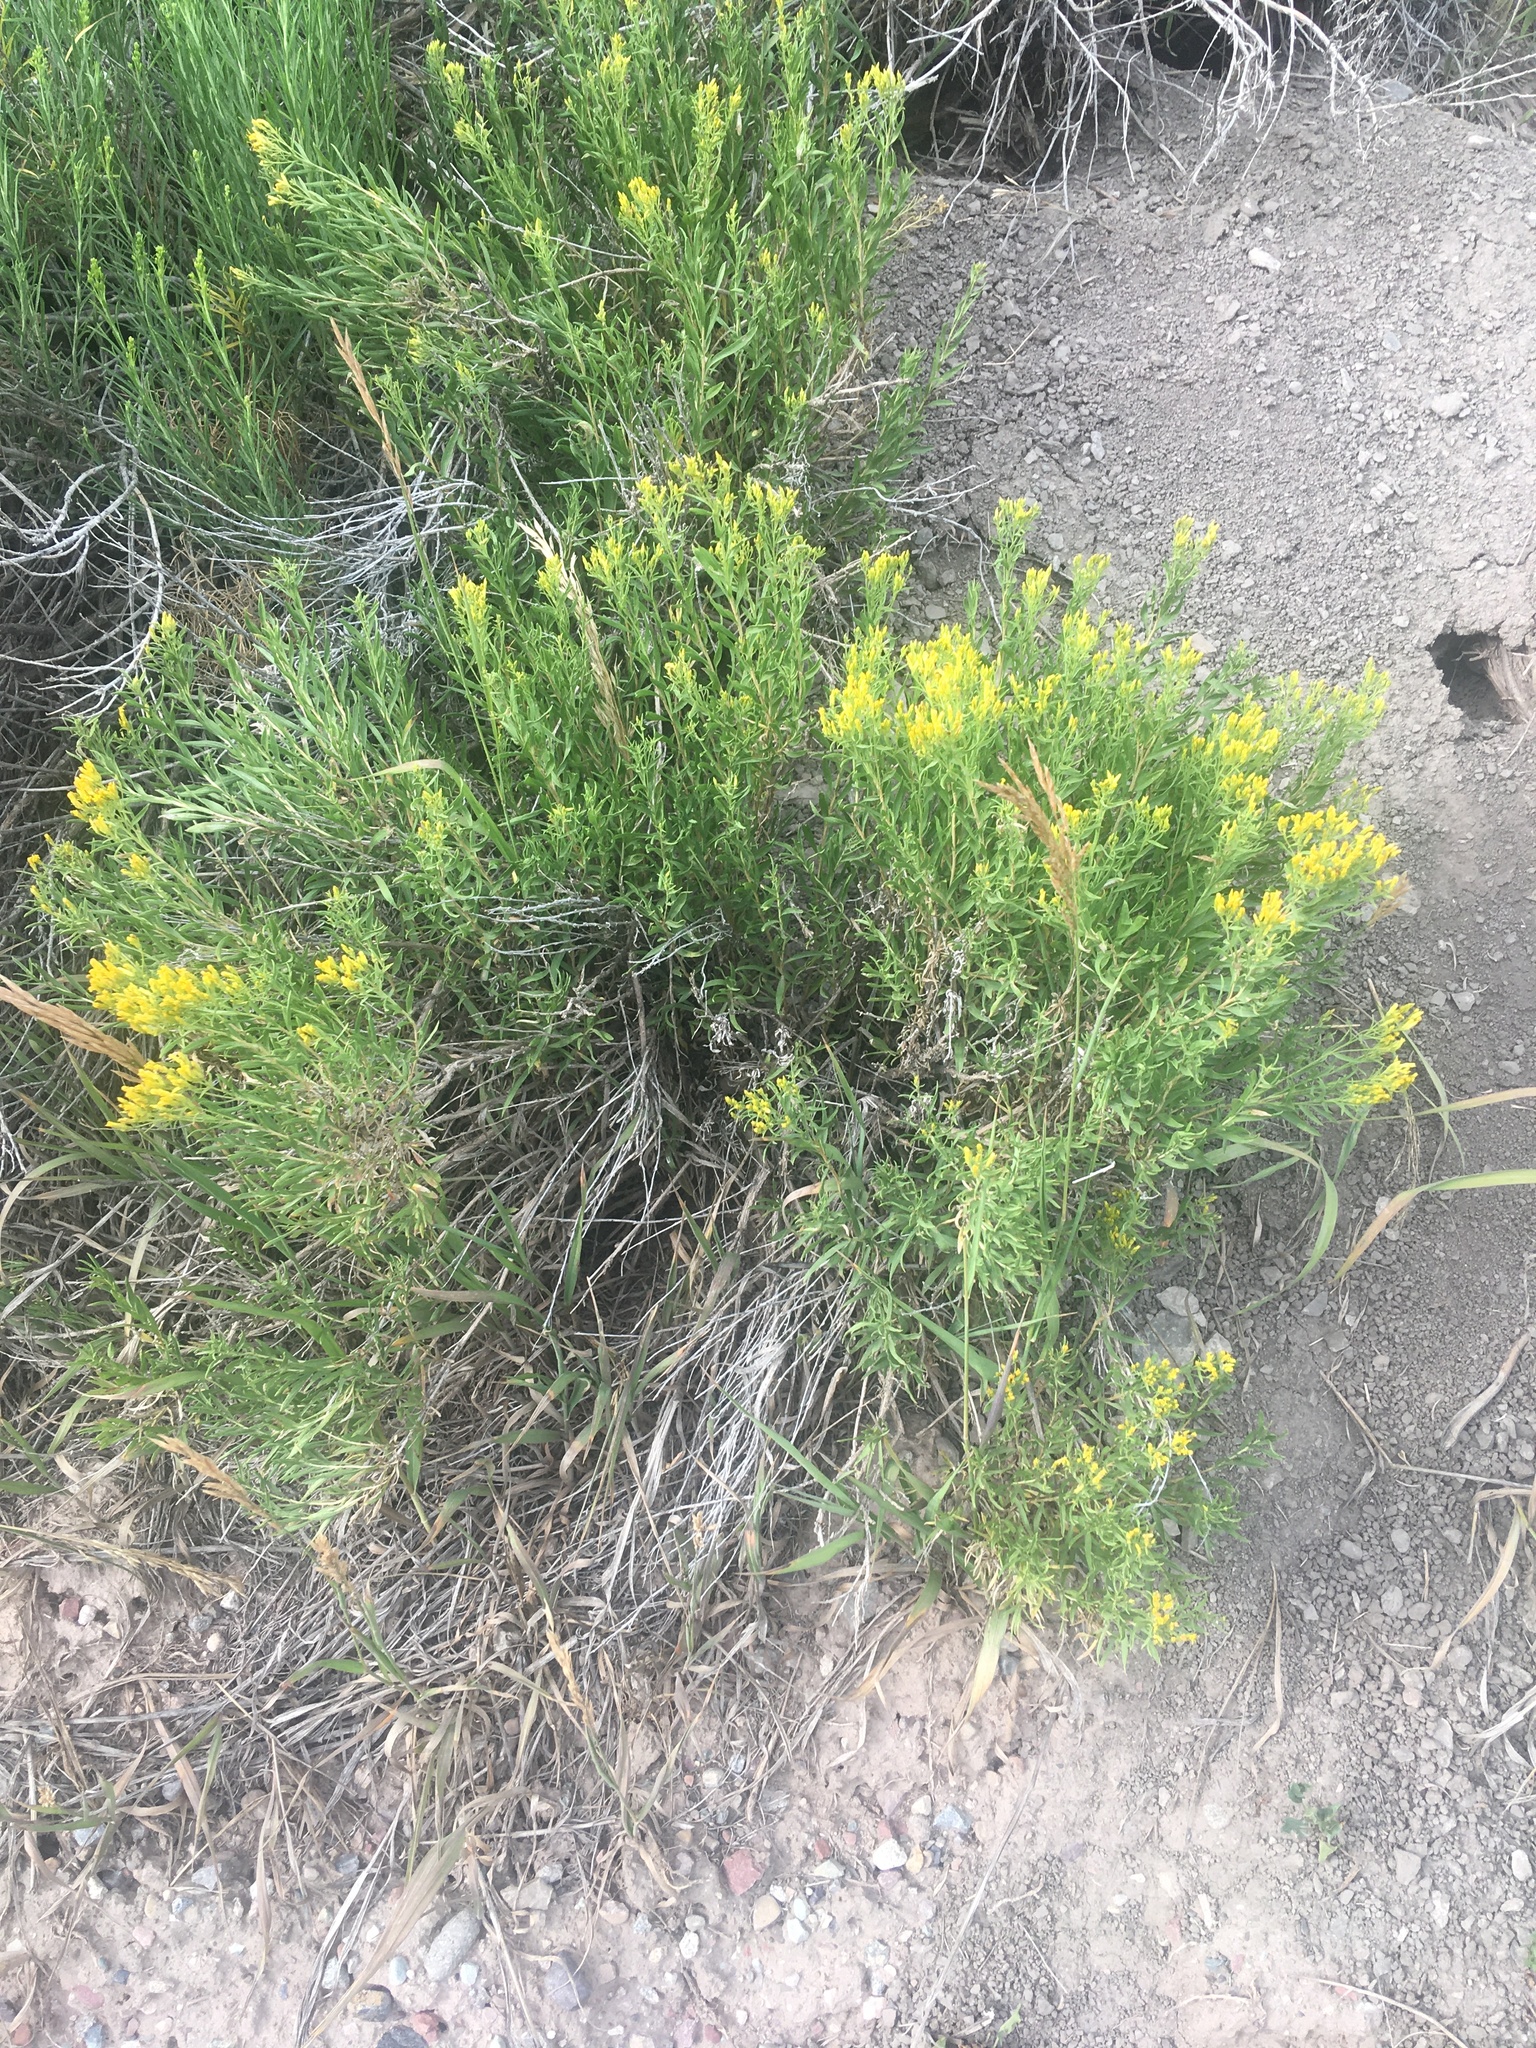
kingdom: Plantae
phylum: Tracheophyta
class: Magnoliopsida
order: Asterales
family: Asteraceae
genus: Chrysothamnus
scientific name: Chrysothamnus viscidiflorus
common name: Yellow rabbitbrush
